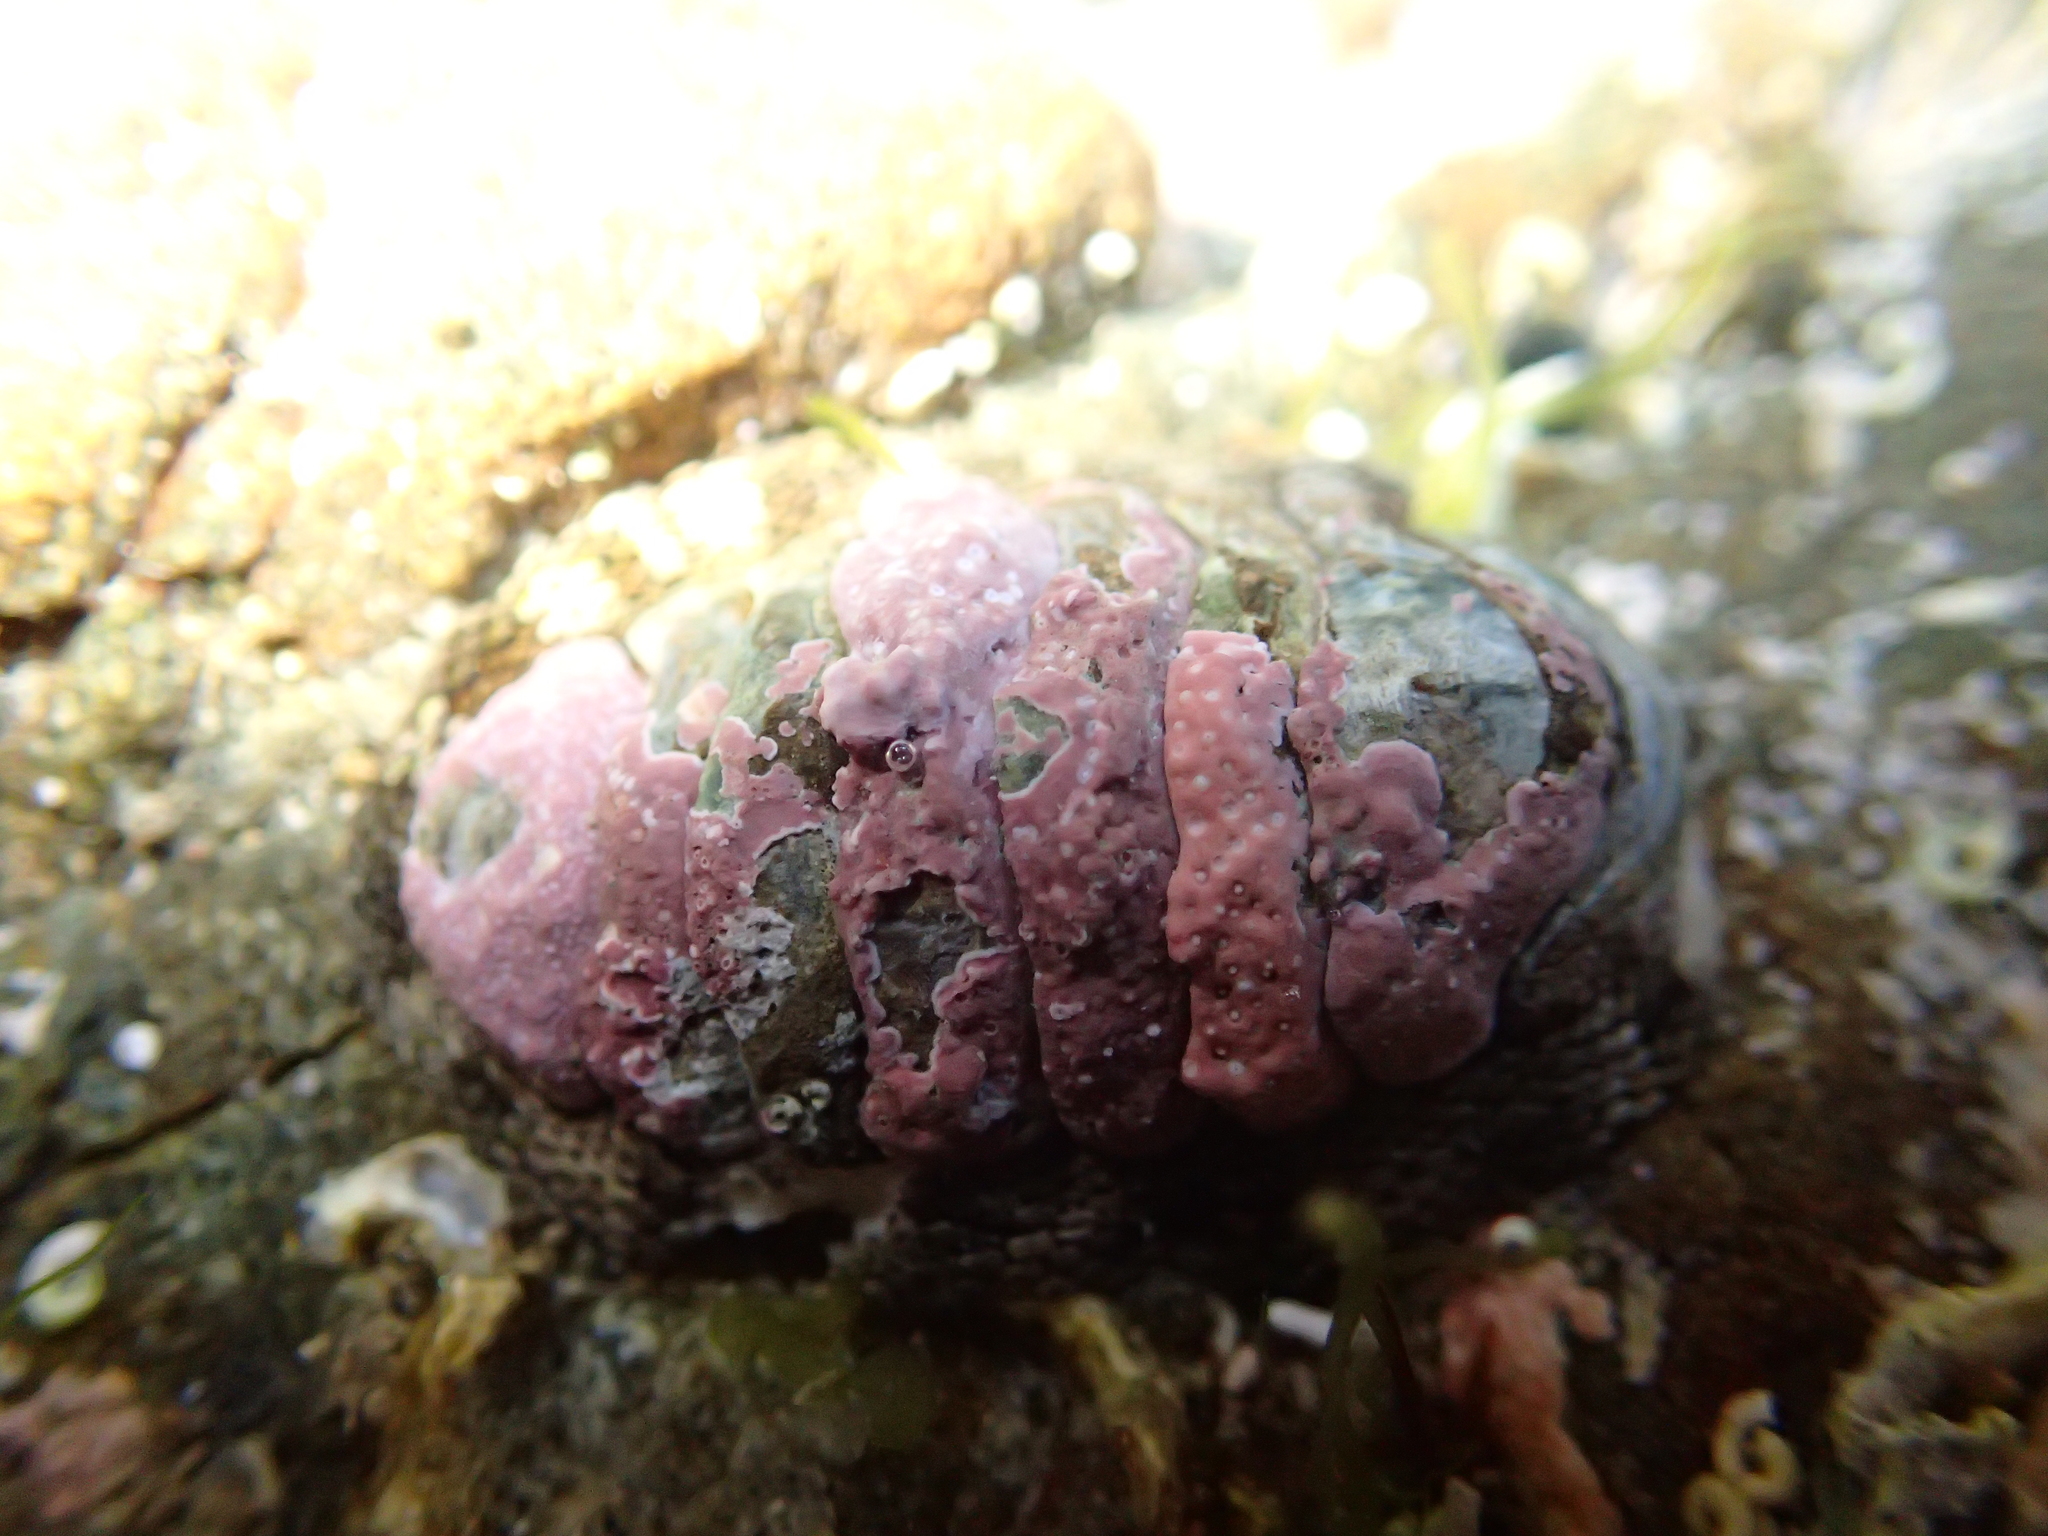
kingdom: Animalia
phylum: Mollusca
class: Polyplacophora
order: Chitonida
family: Chitonidae
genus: Sypharochiton
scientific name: Sypharochiton pelliserpentis
